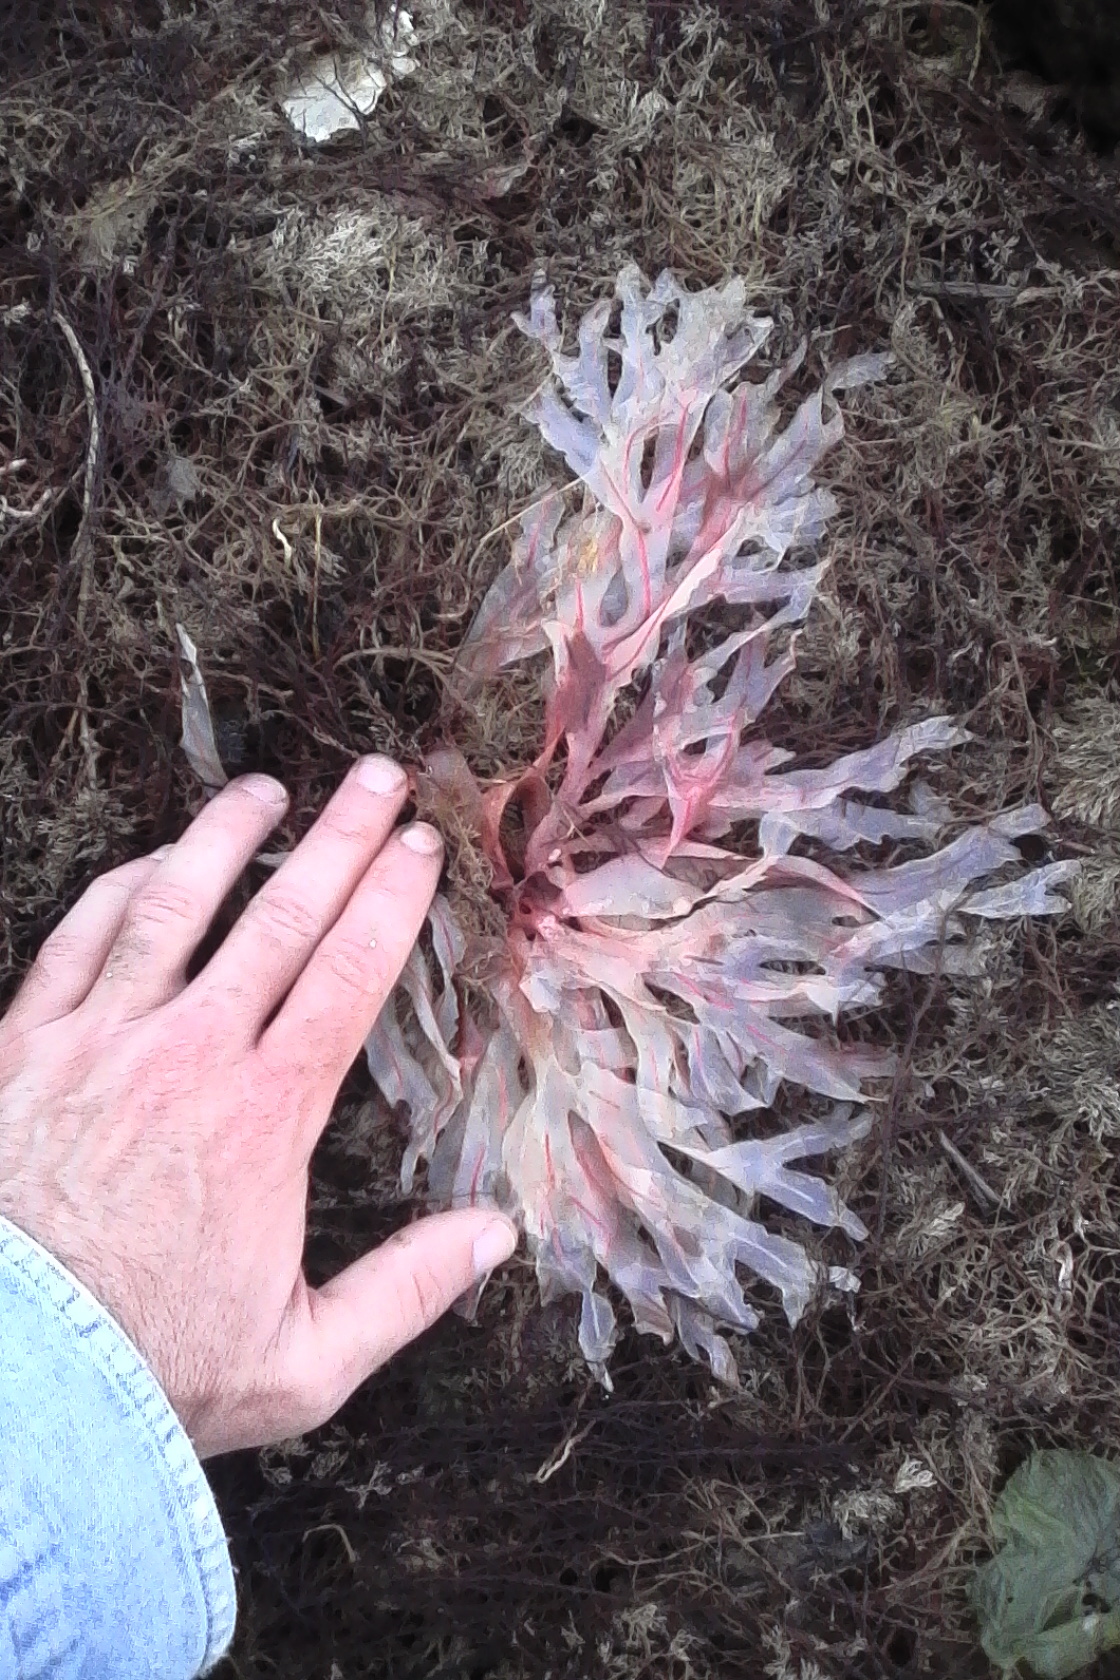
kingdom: Plantae
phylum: Rhodophyta
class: Florideophyceae
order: Gigartinales
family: Phyllophoraceae
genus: Stenogramma
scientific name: Stenogramma interruptum
